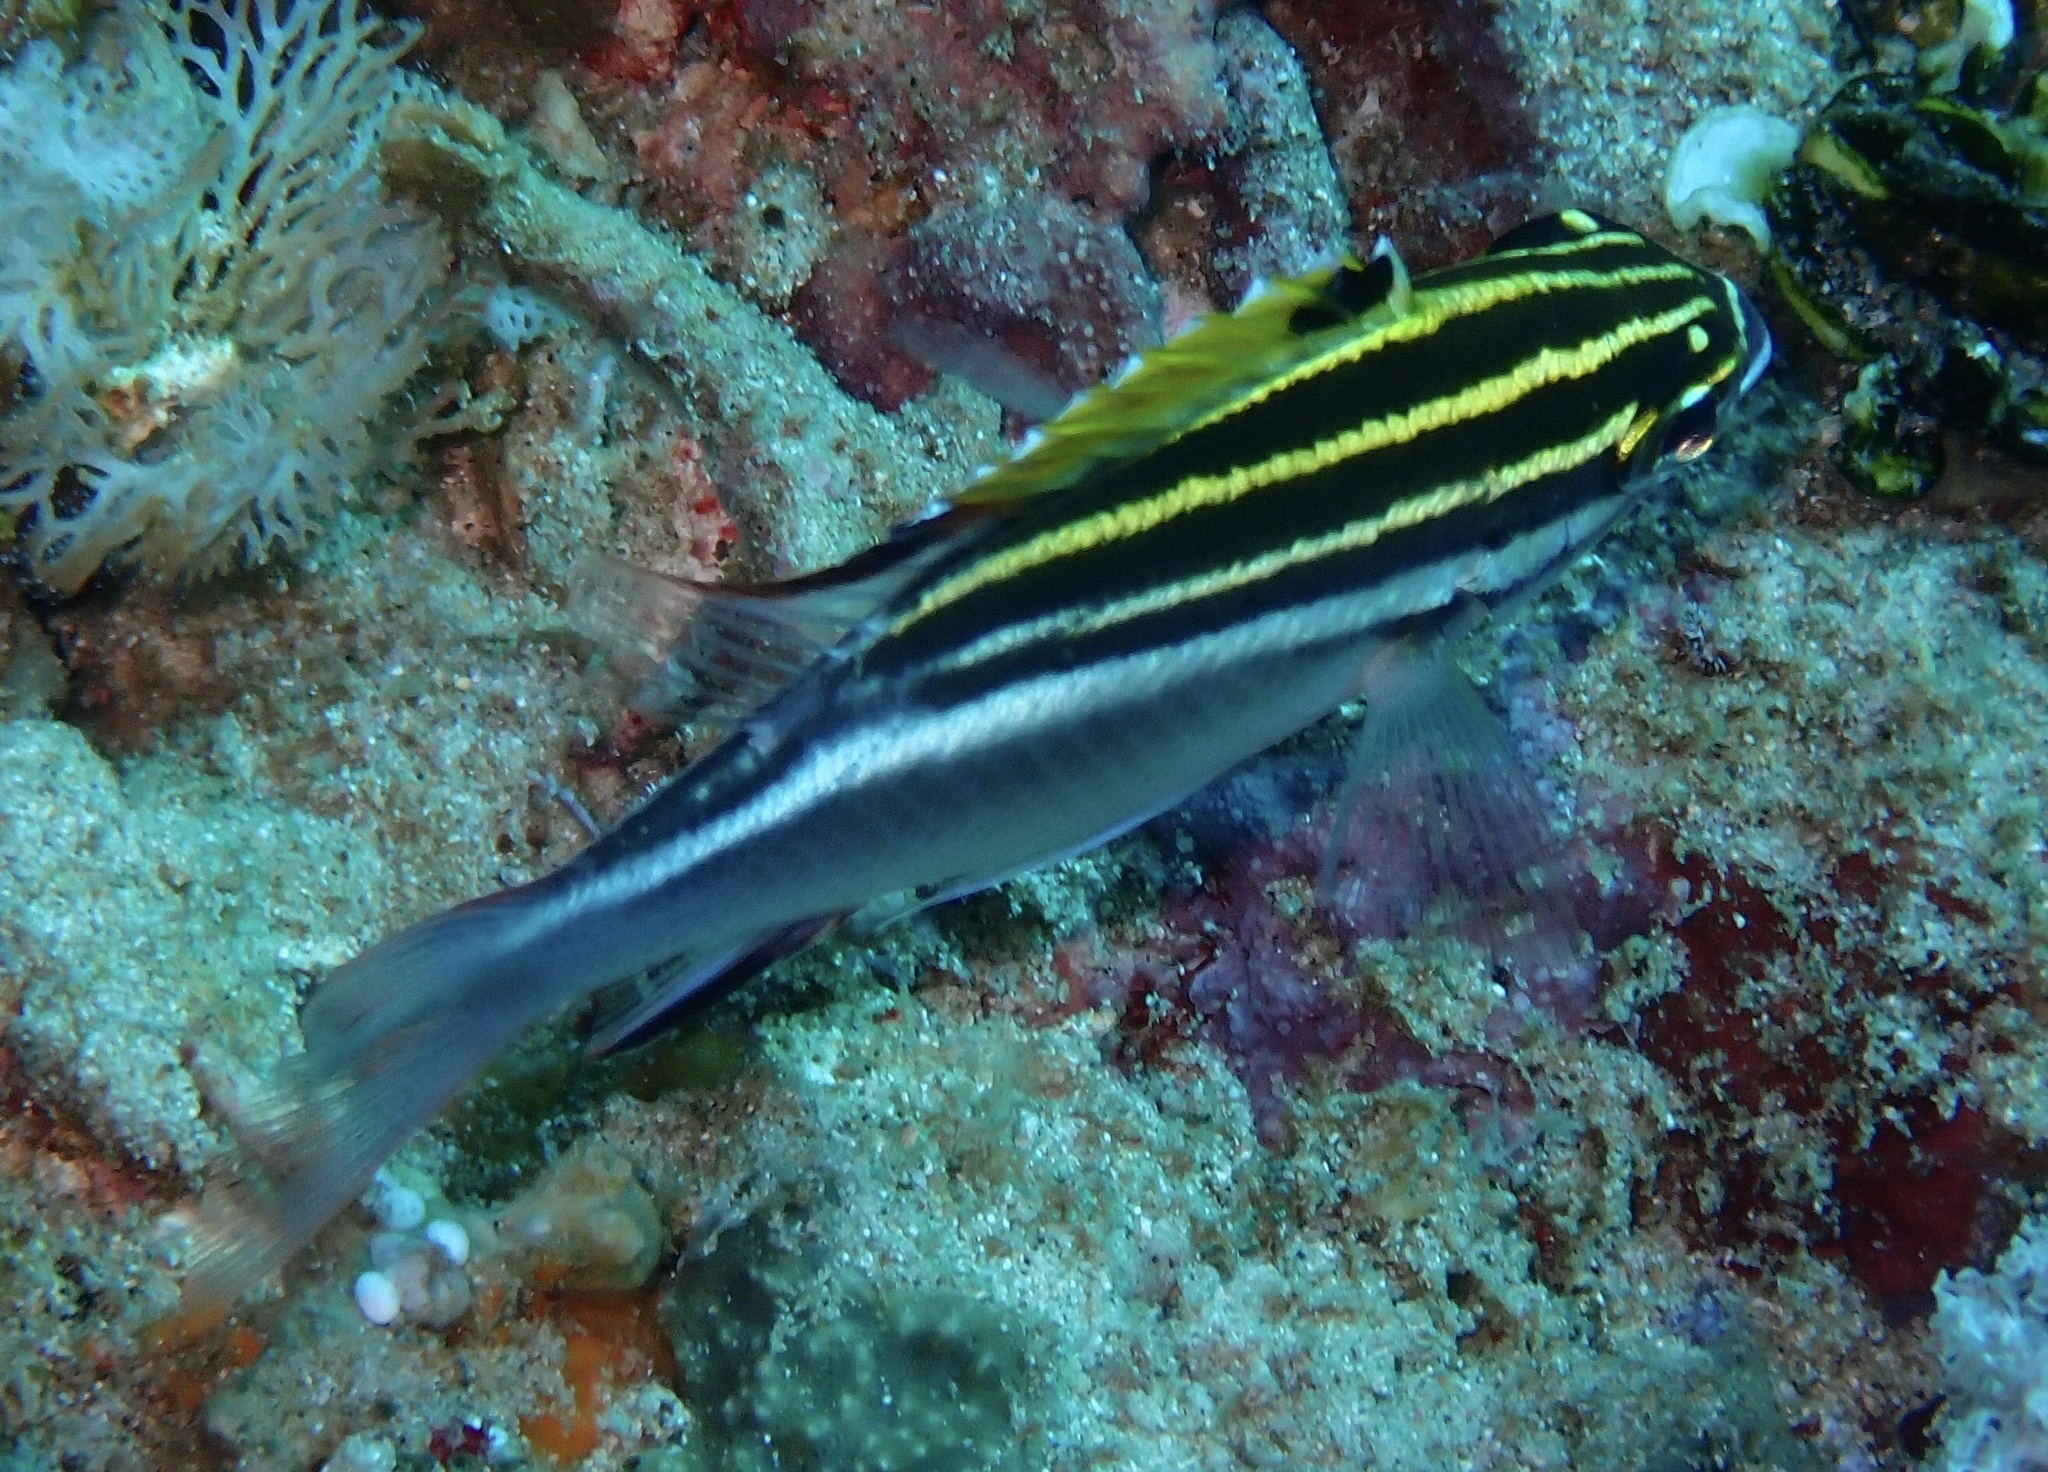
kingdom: Animalia
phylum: Chordata
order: Perciformes
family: Nemipteridae
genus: Scolopsis
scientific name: Scolopsis bilineata
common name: Two-lined monocle bream
